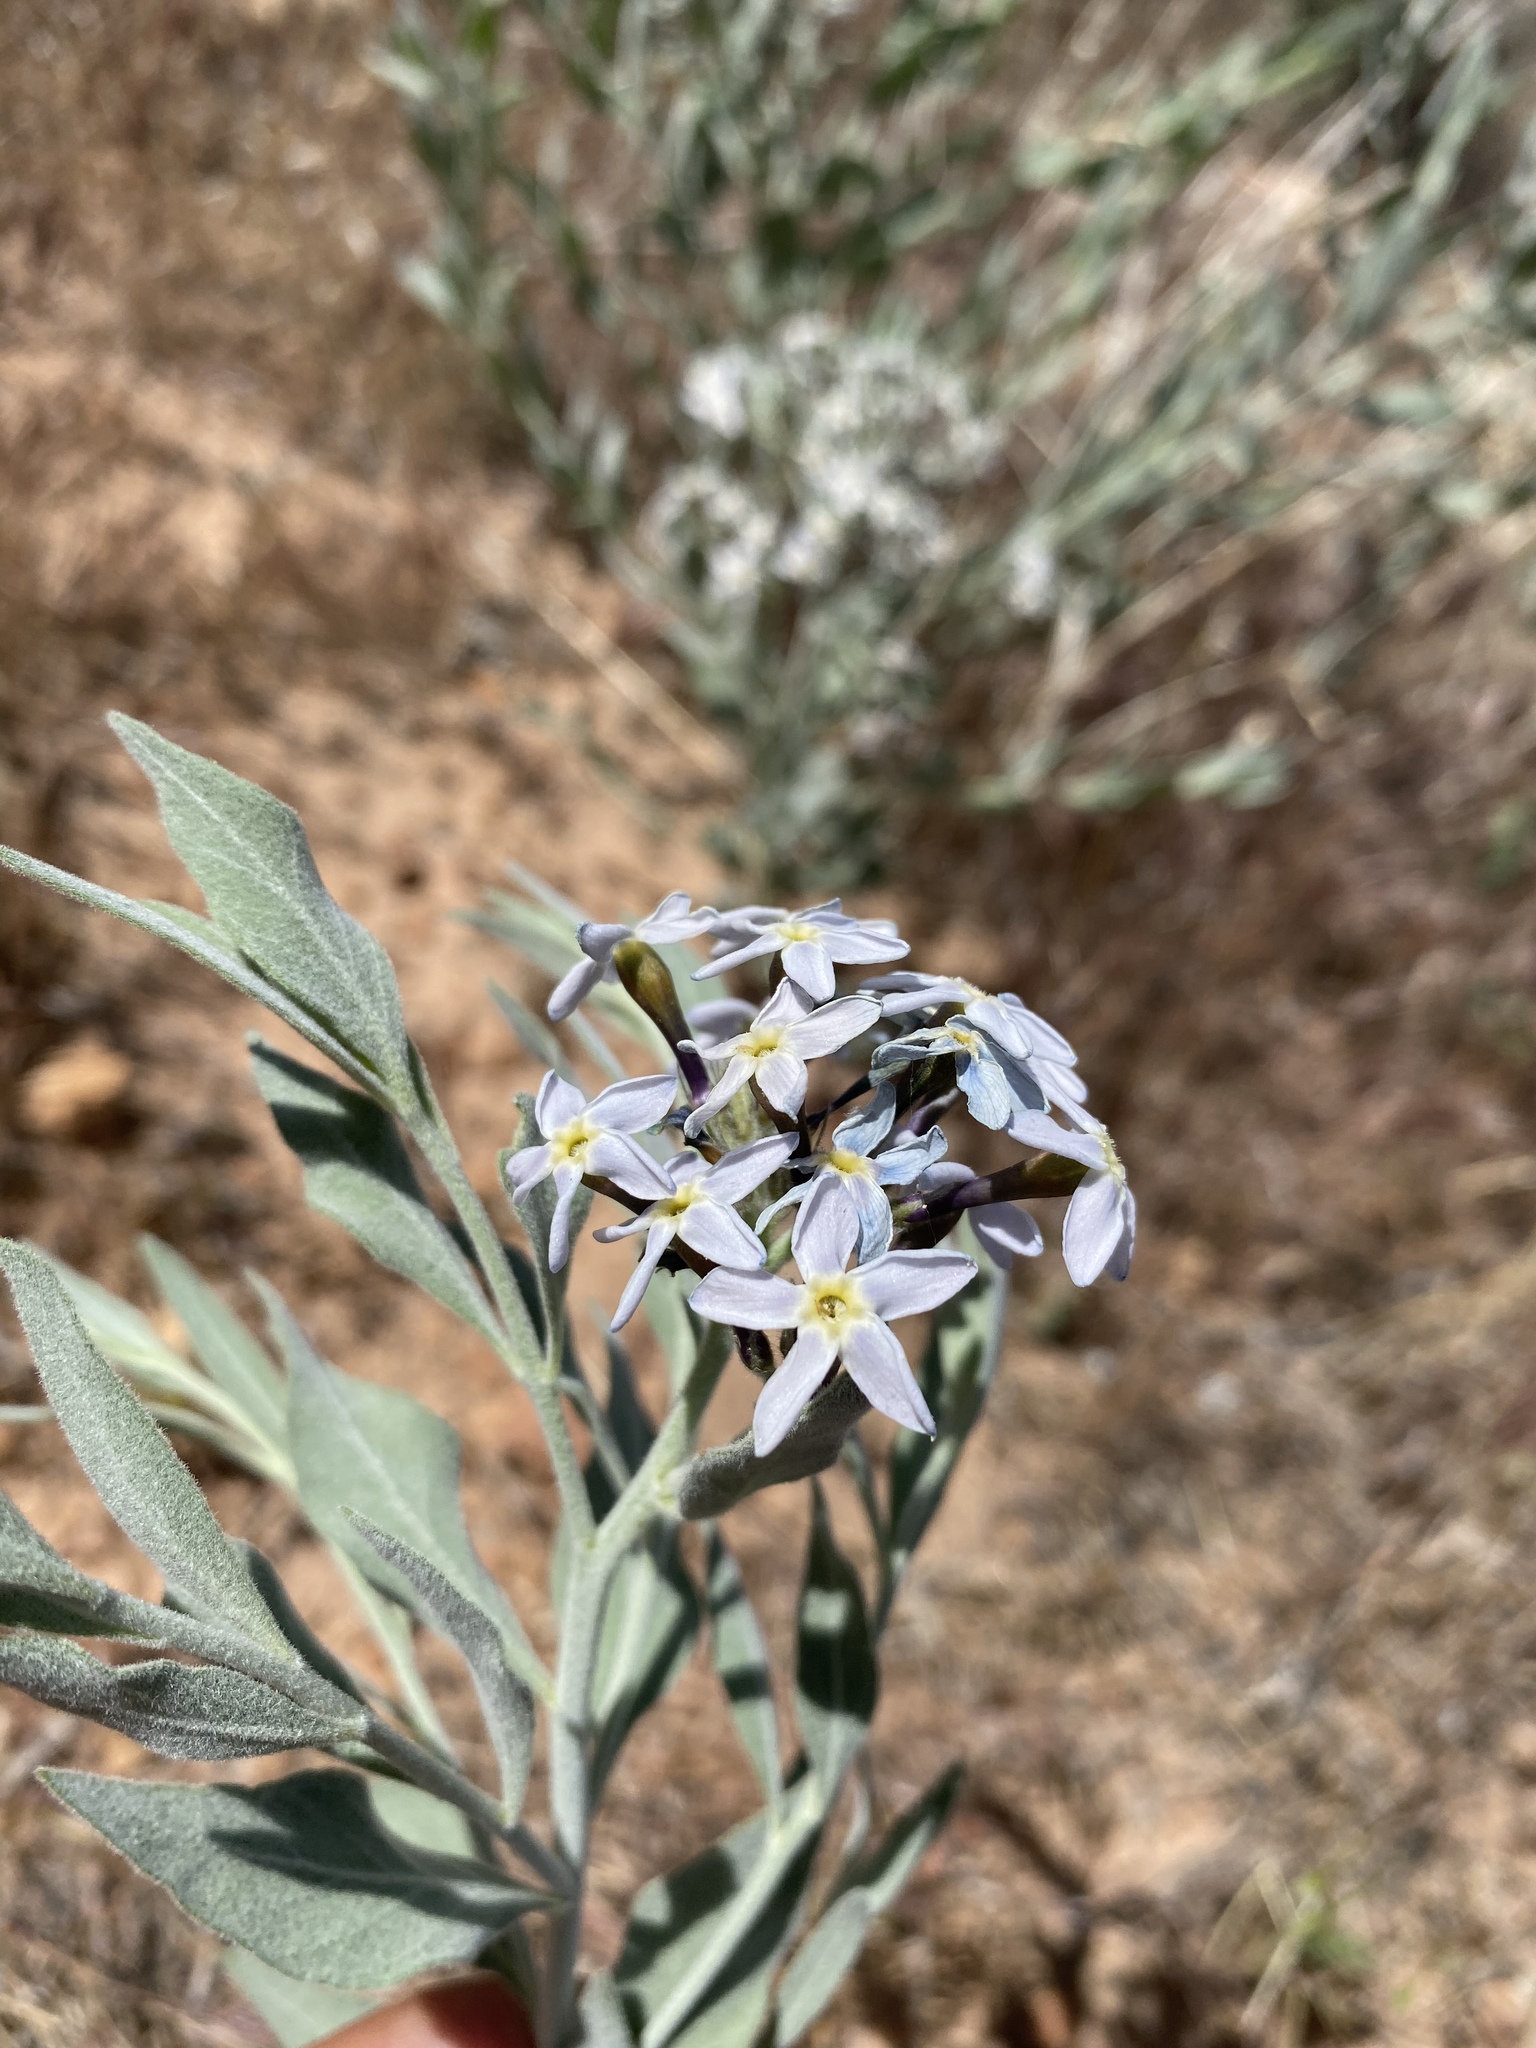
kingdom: Plantae
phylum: Tracheophyta
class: Magnoliopsida
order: Gentianales
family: Apocynaceae
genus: Amsonia
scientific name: Amsonia tomentosa
